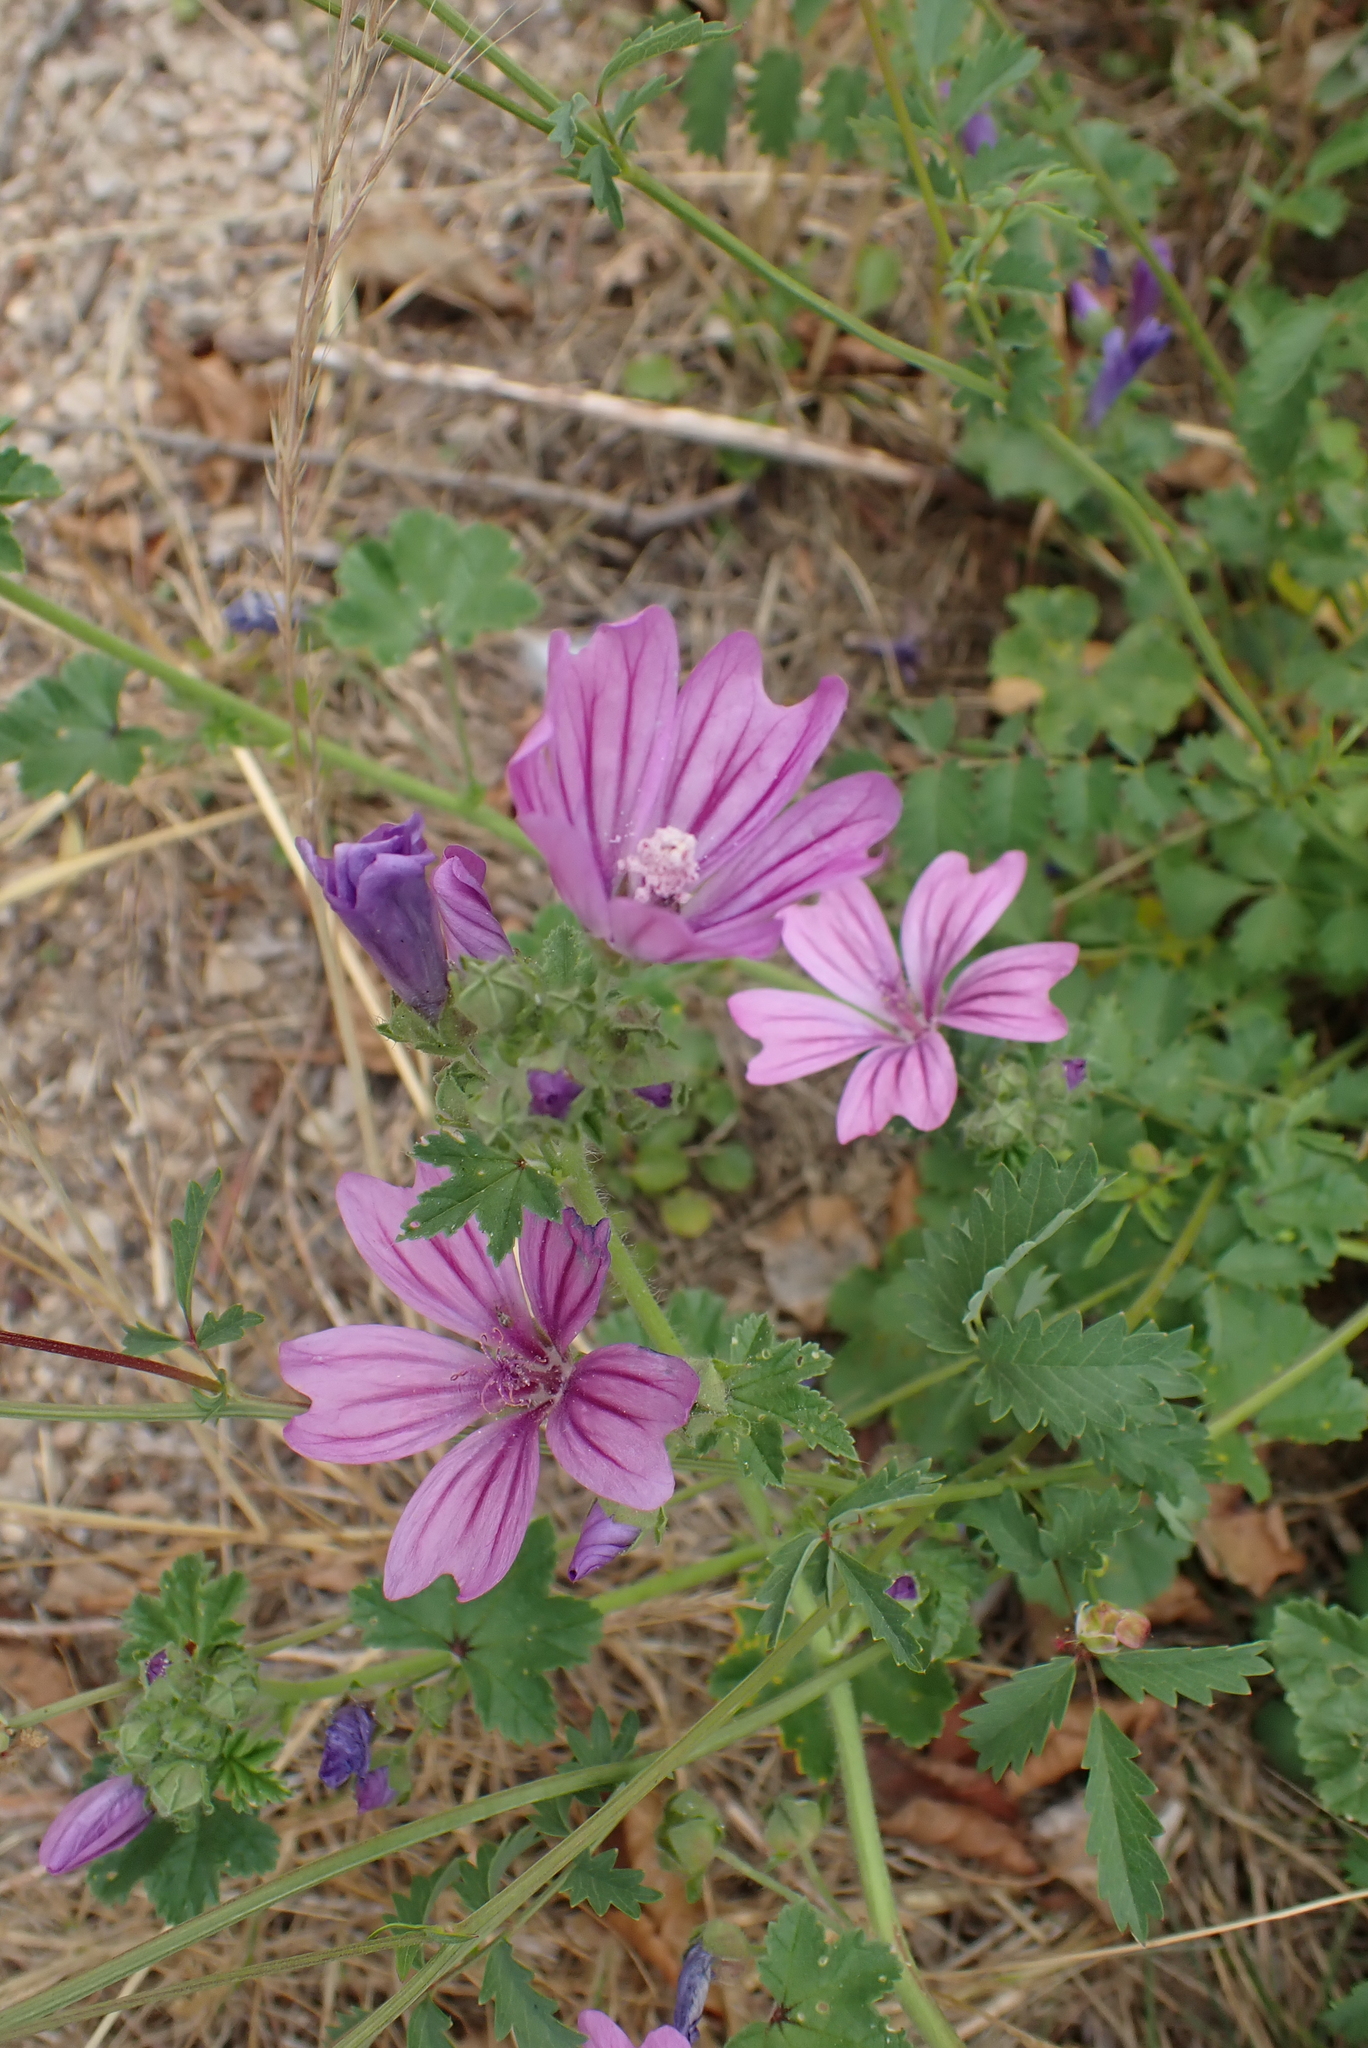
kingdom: Plantae
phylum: Tracheophyta
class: Magnoliopsida
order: Malvales
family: Malvaceae
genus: Malva
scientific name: Malva sylvestris
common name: Common mallow
